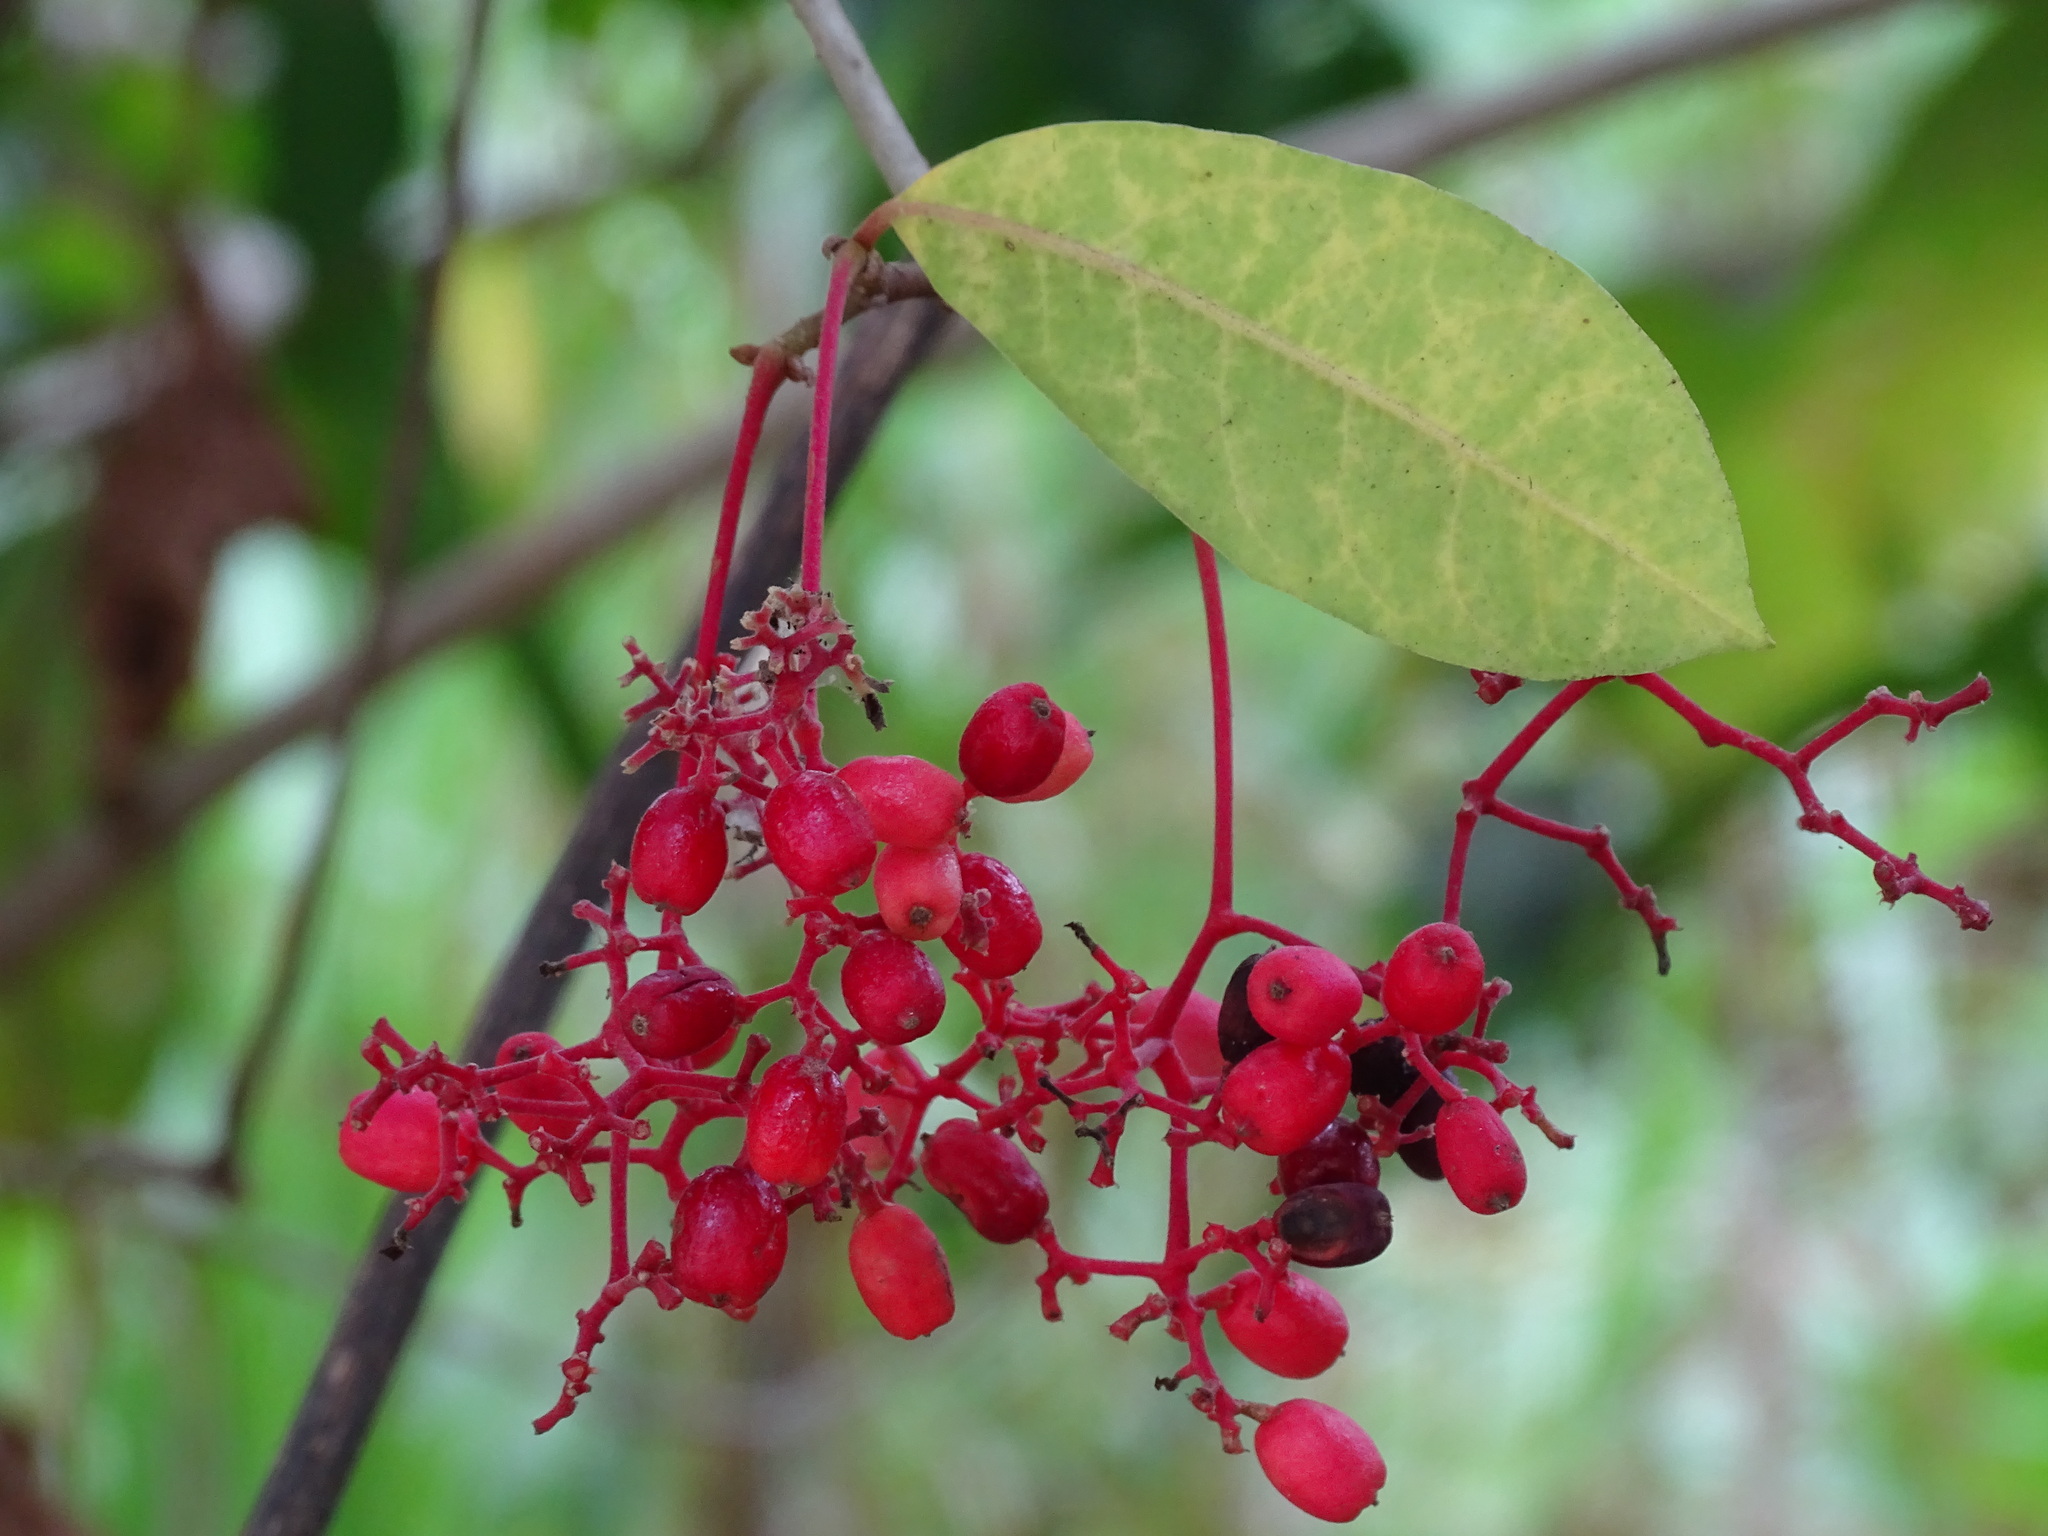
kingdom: Plantae
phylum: Tracheophyta
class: Magnoliopsida
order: Caryophyllales
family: Nyctaginaceae
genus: Neea
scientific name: Neea turbinata
